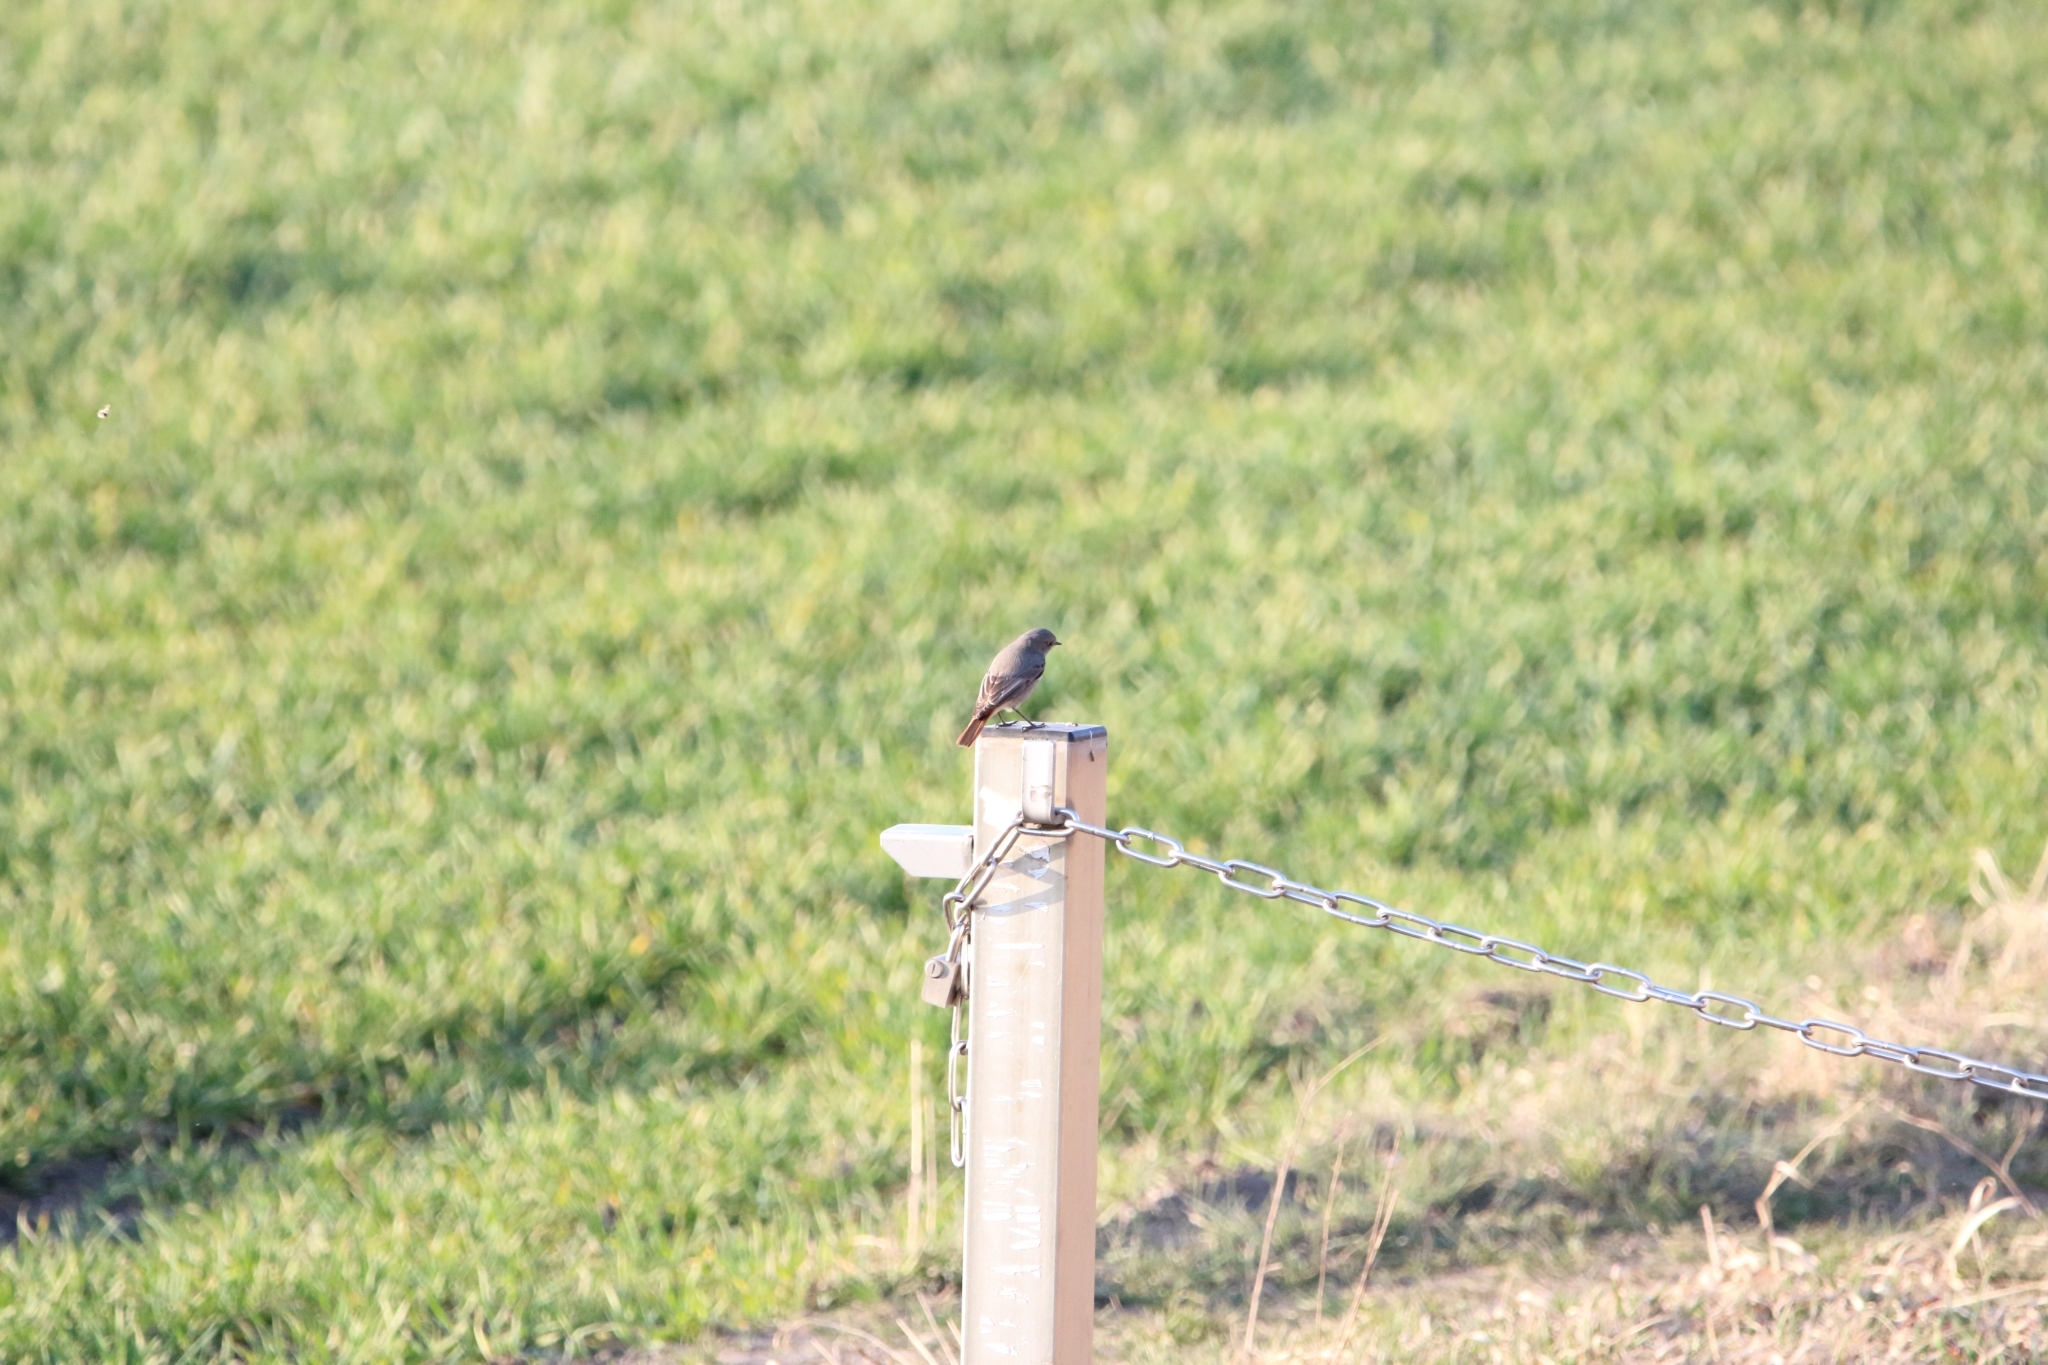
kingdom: Animalia
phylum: Chordata
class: Aves
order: Passeriformes
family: Muscicapidae
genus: Phoenicurus
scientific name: Phoenicurus ochruros
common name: Black redstart
